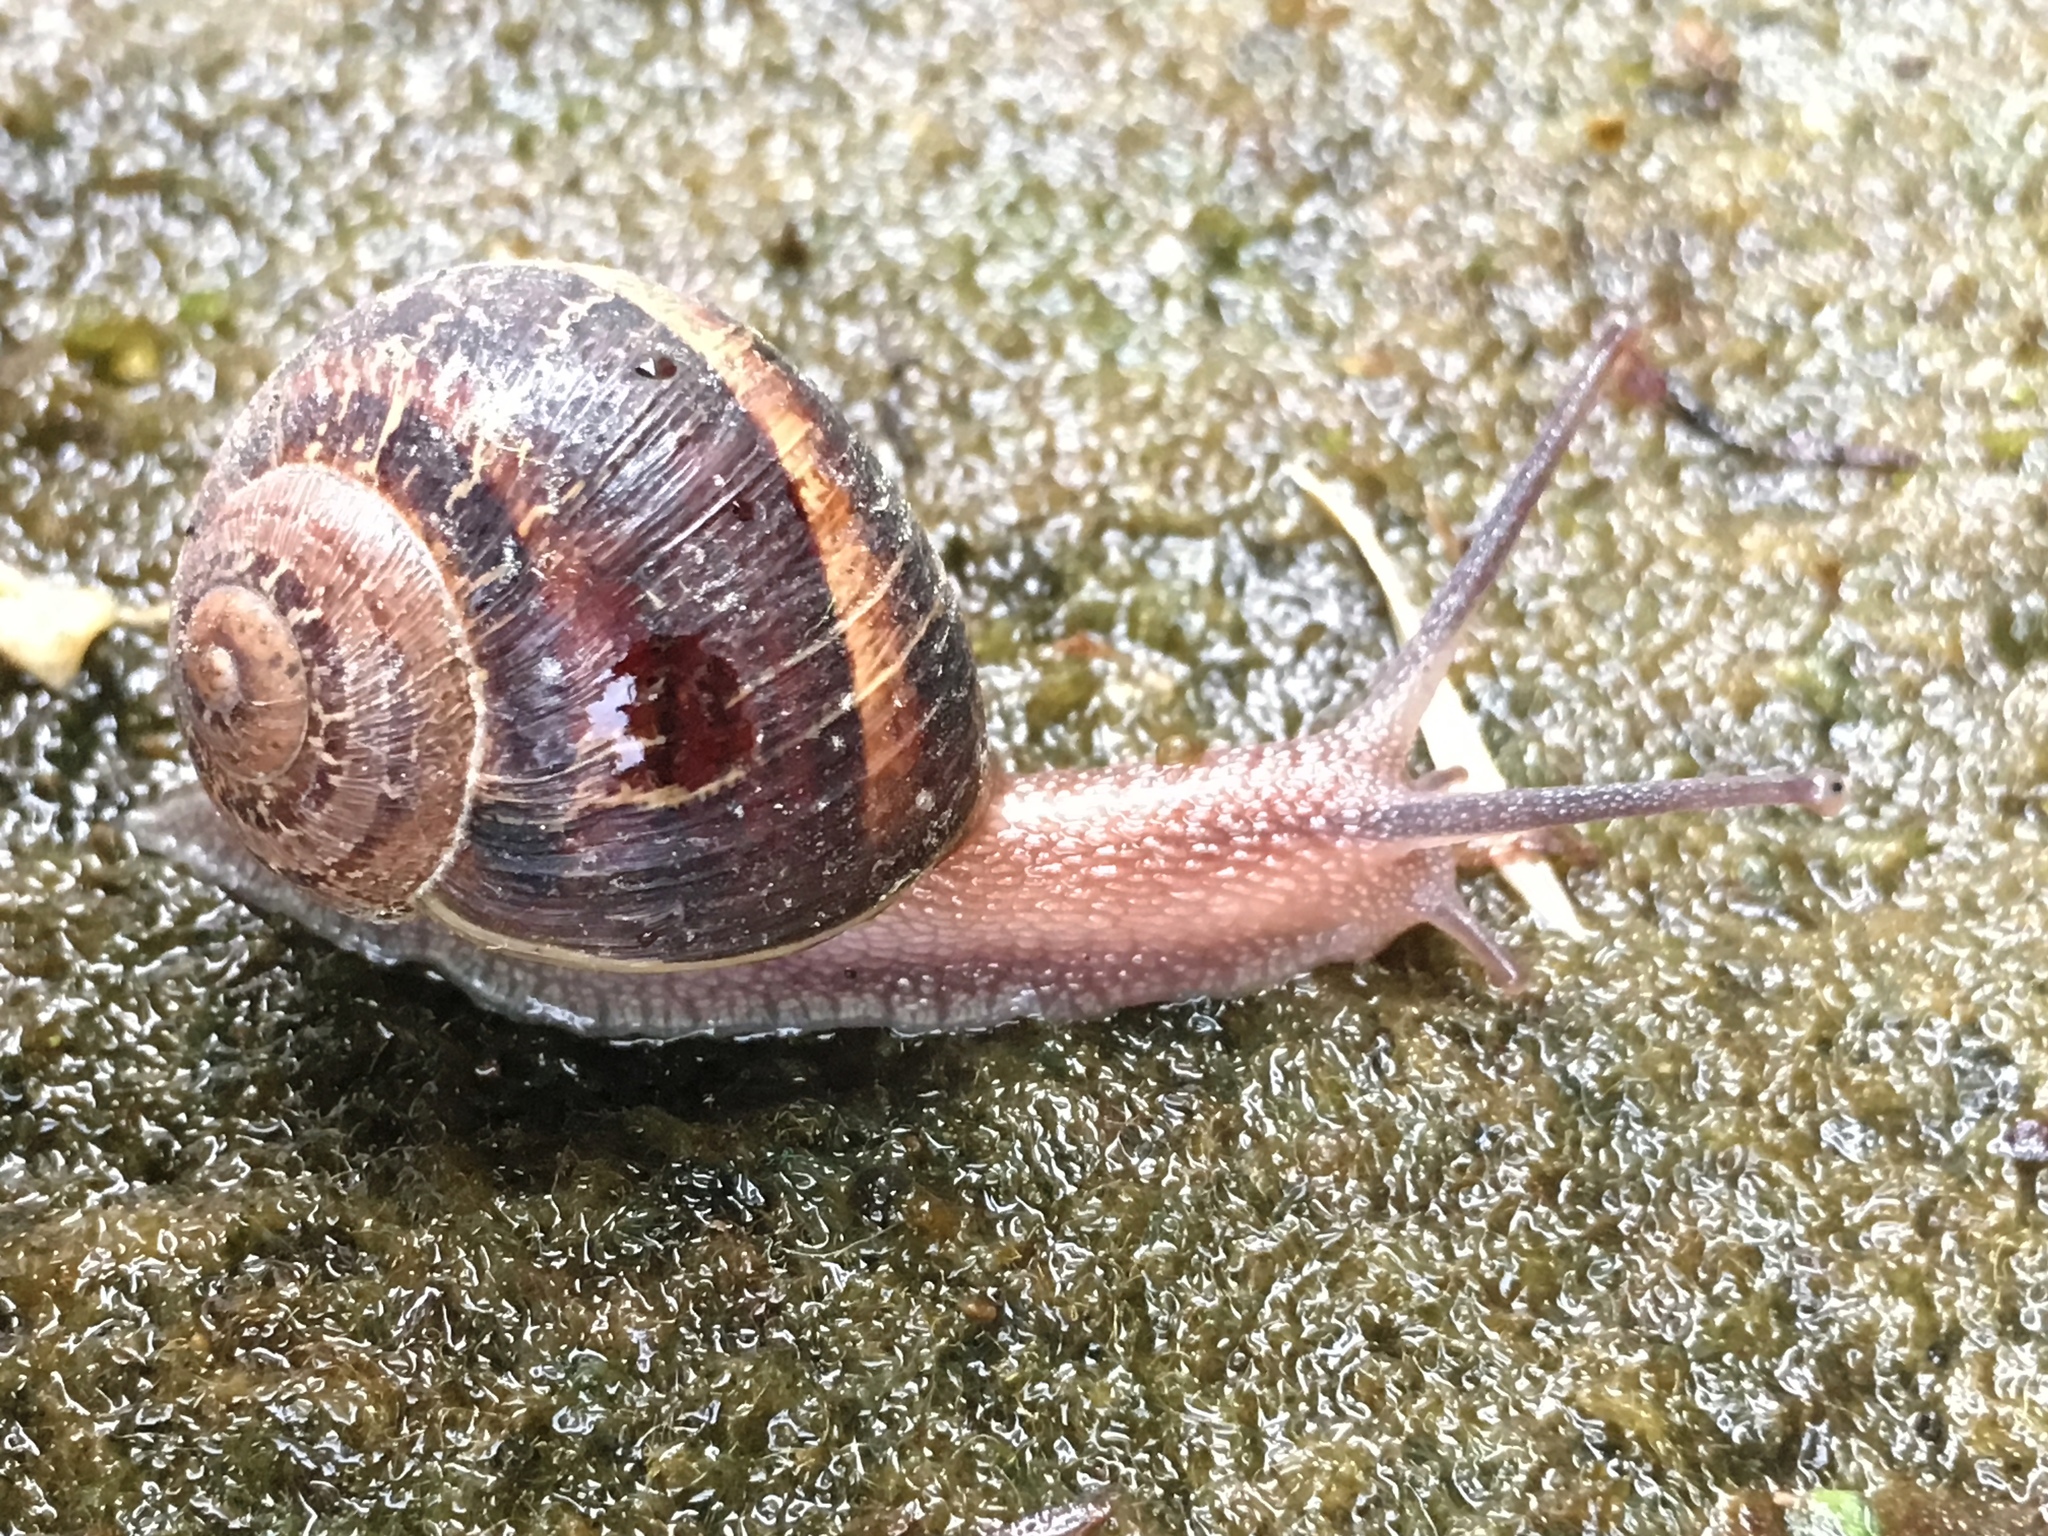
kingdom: Animalia
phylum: Mollusca
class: Gastropoda
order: Stylommatophora
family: Helicidae
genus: Cornu
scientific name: Cornu aspersum
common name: Brown garden snail
